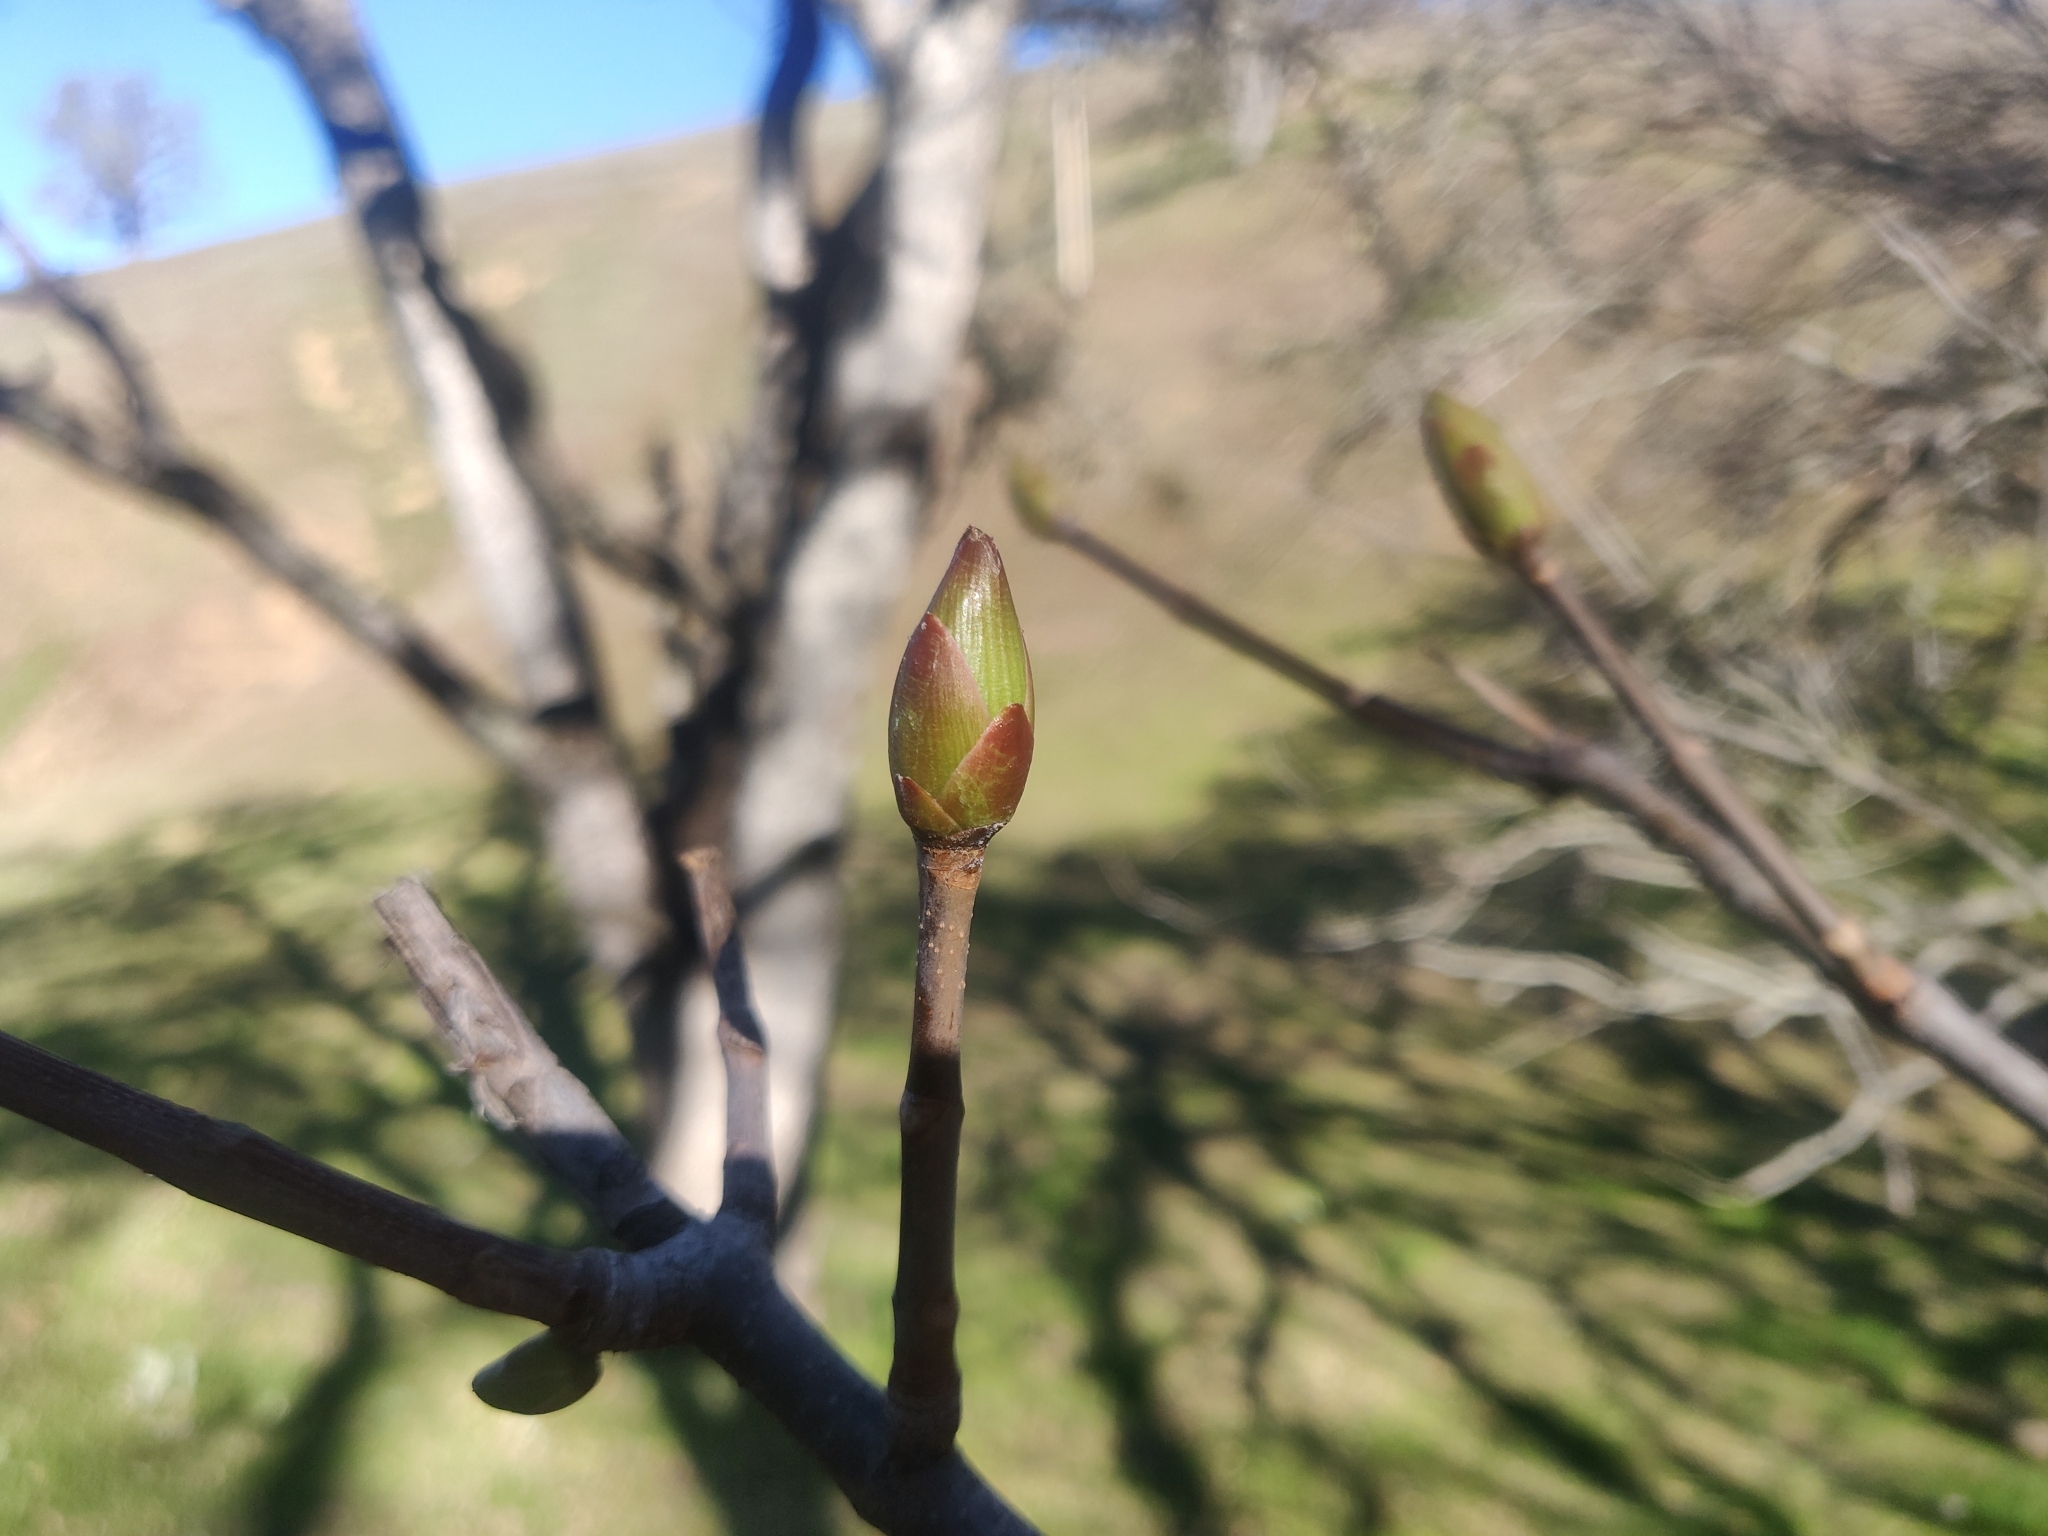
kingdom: Plantae
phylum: Tracheophyta
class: Magnoliopsida
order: Sapindales
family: Sapindaceae
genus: Aesculus
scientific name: Aesculus californica
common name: California buckeye
